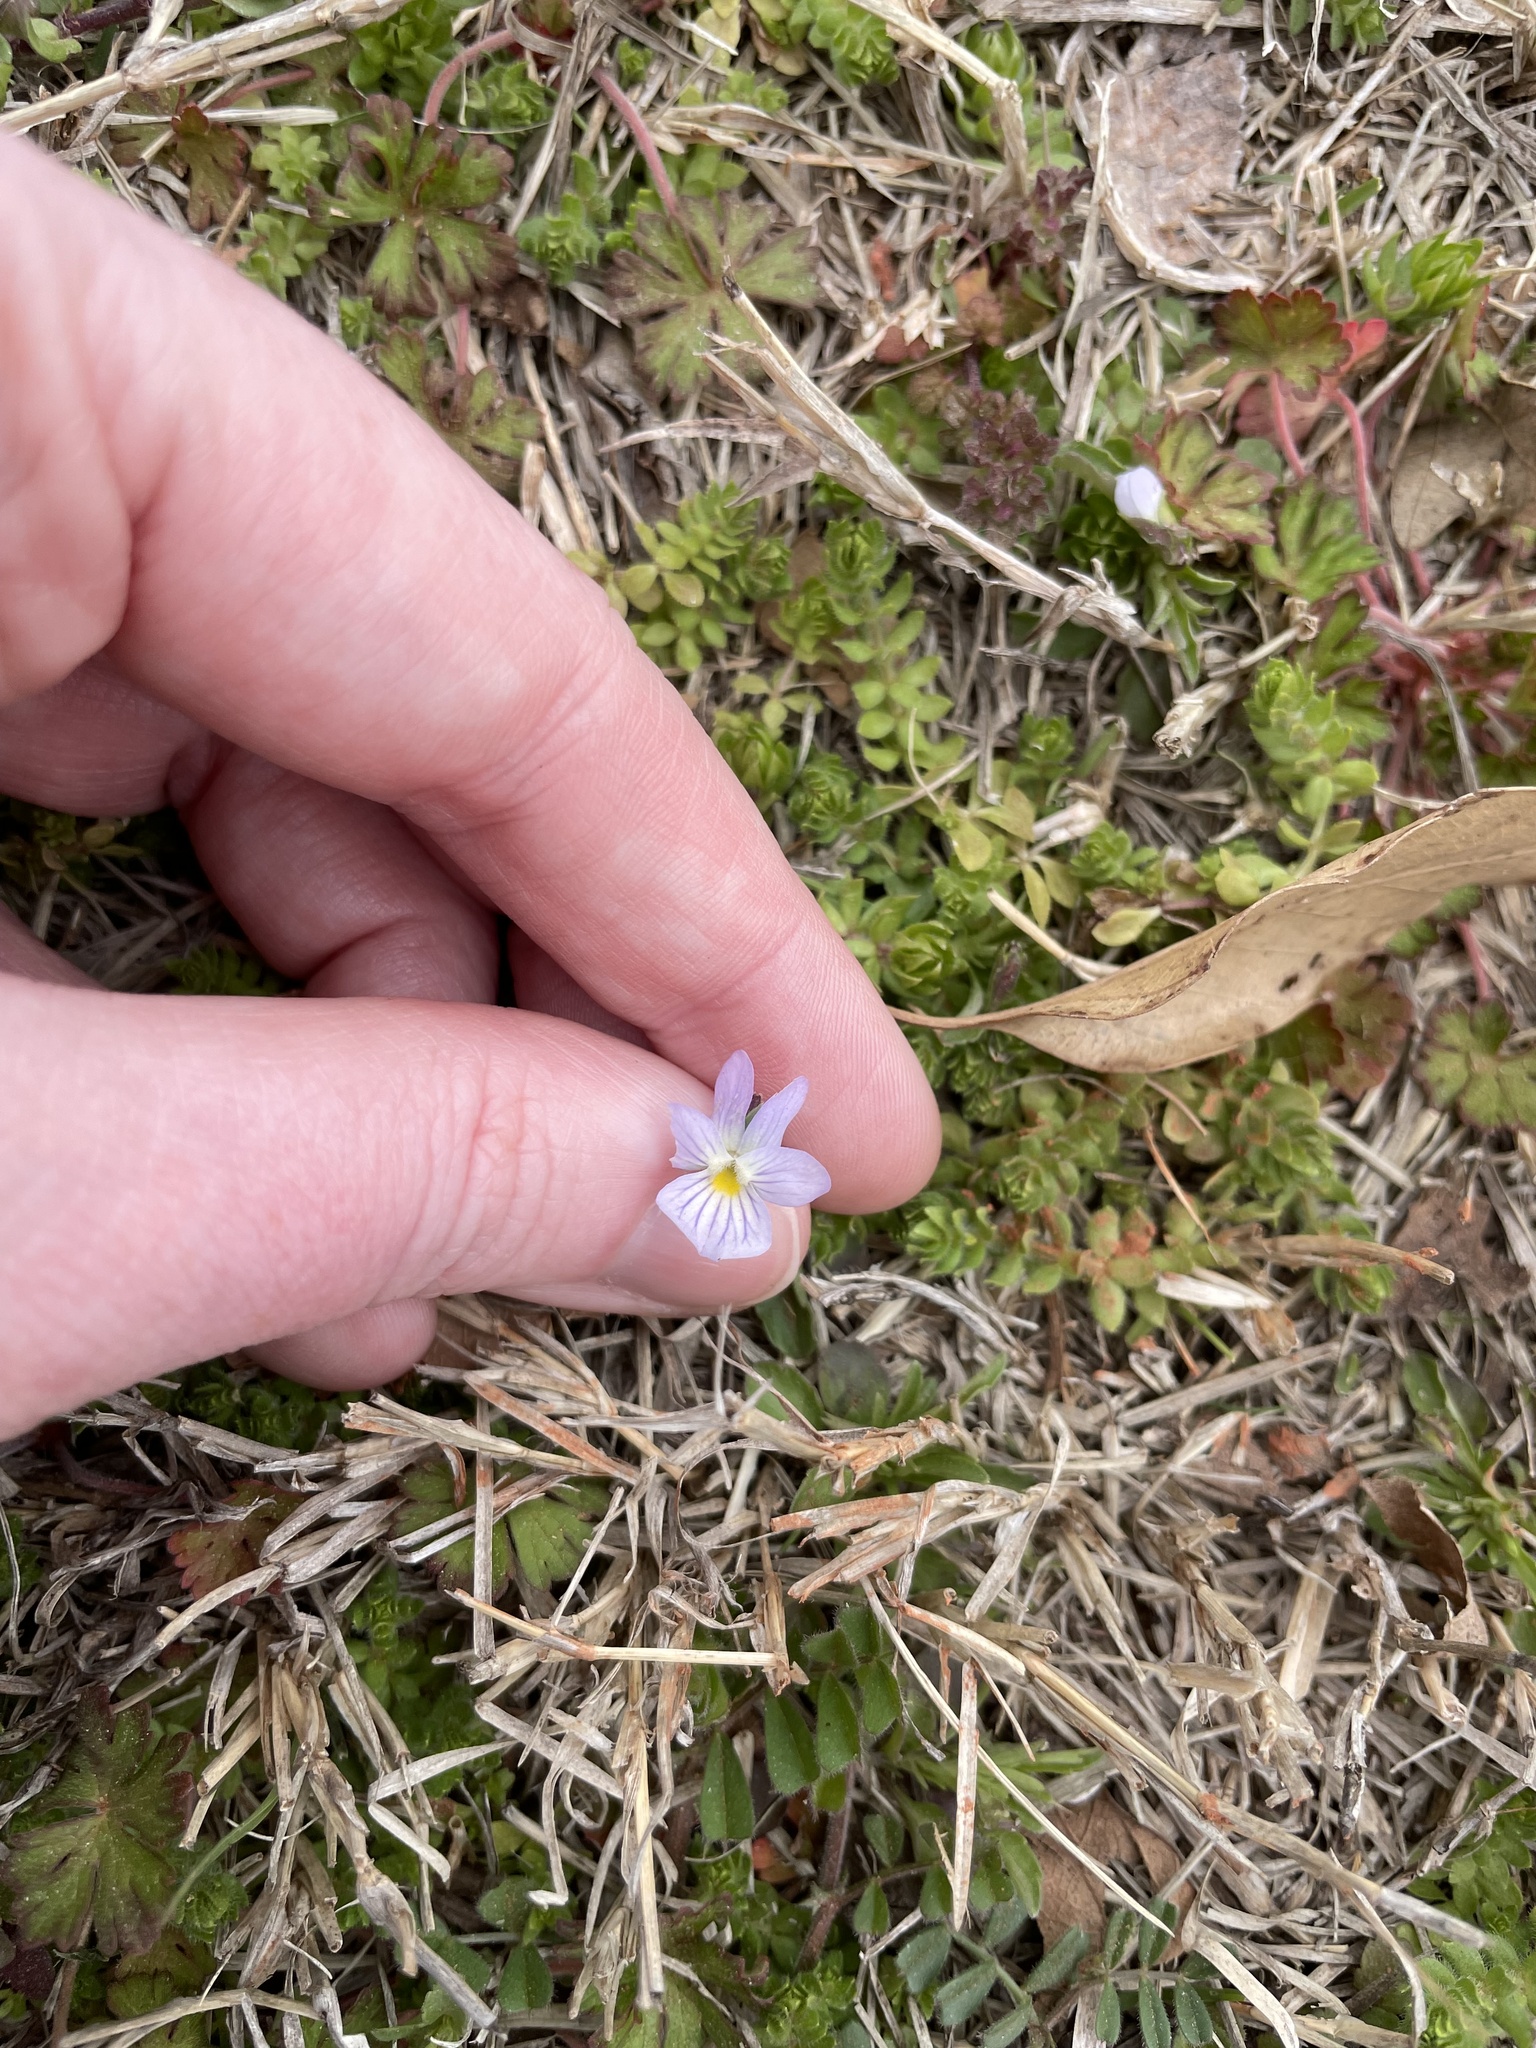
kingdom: Plantae
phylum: Tracheophyta
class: Magnoliopsida
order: Malpighiales
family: Violaceae
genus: Viola
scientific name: Viola rafinesquei
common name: American field pansy
